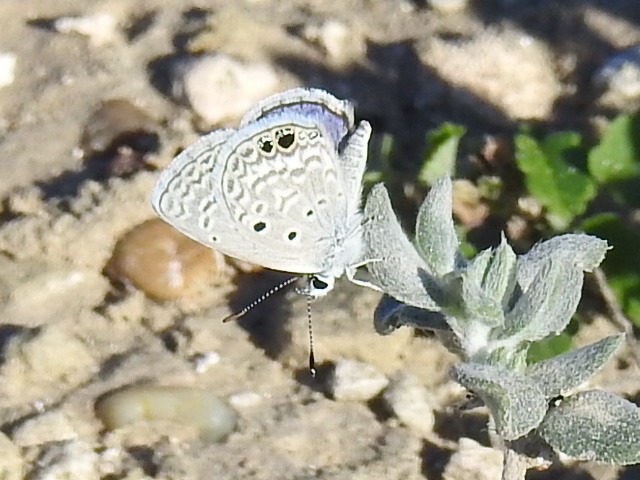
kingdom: Animalia
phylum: Arthropoda
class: Insecta
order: Lepidoptera
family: Lycaenidae
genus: Hemiargus
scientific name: Hemiargus ceraunus
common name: Ceraunus blue
